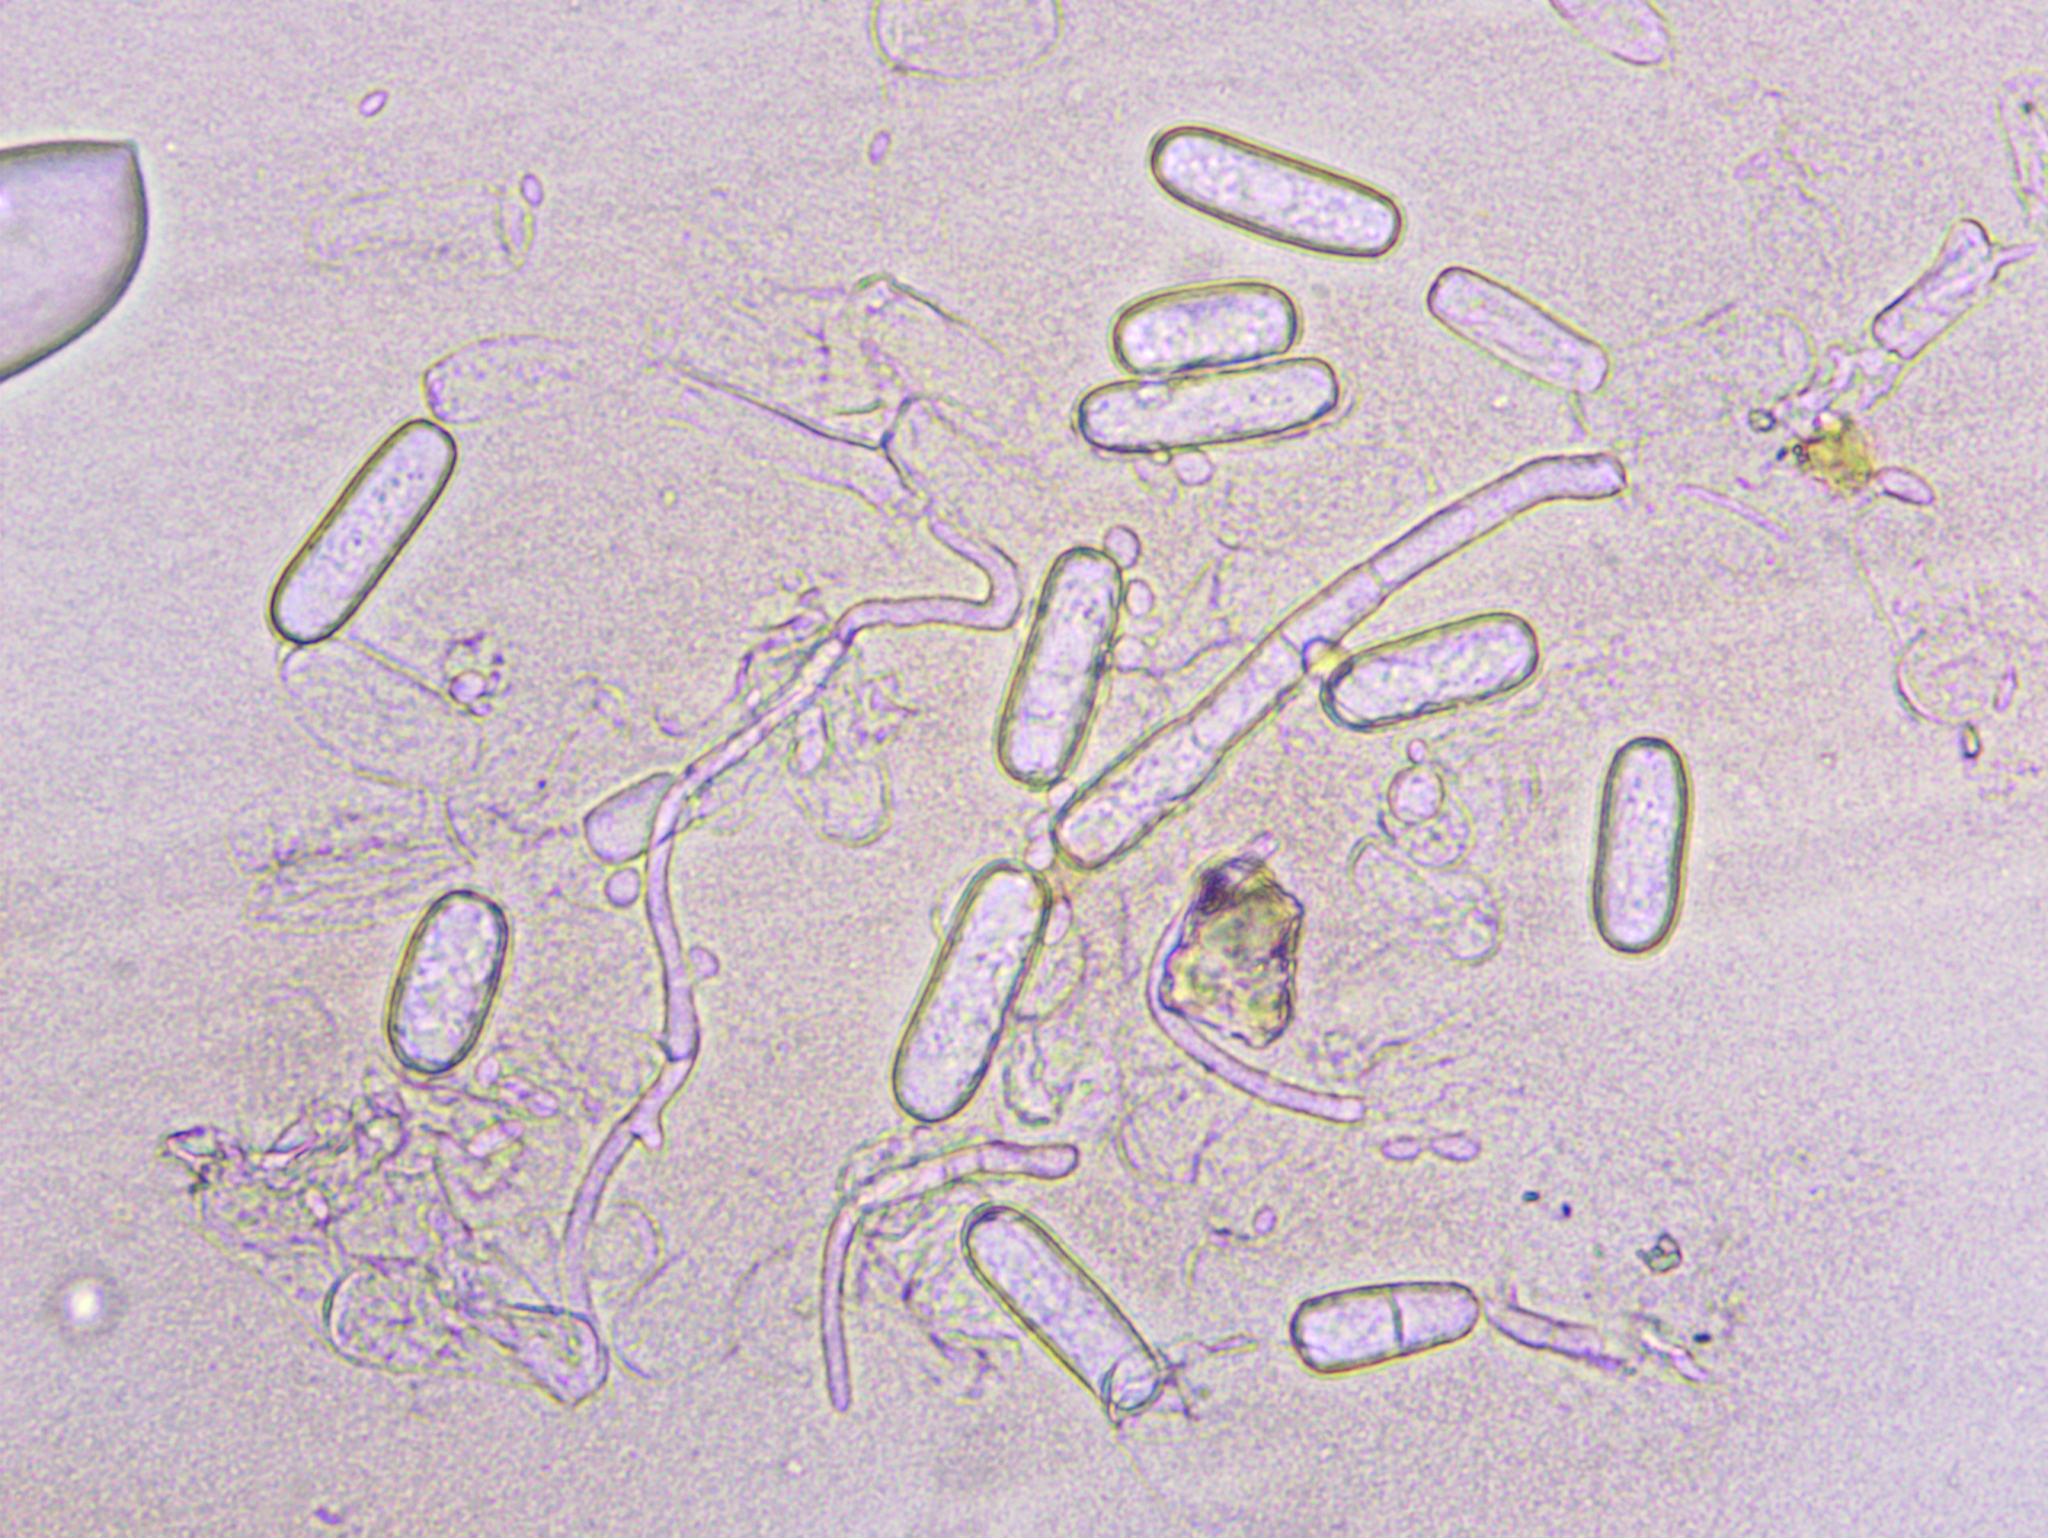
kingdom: Fungi
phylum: Ascomycota
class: Leotiomycetes
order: Helotiales
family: Erysiphaceae
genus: Erysiphe
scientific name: Erysiphe berberidis
